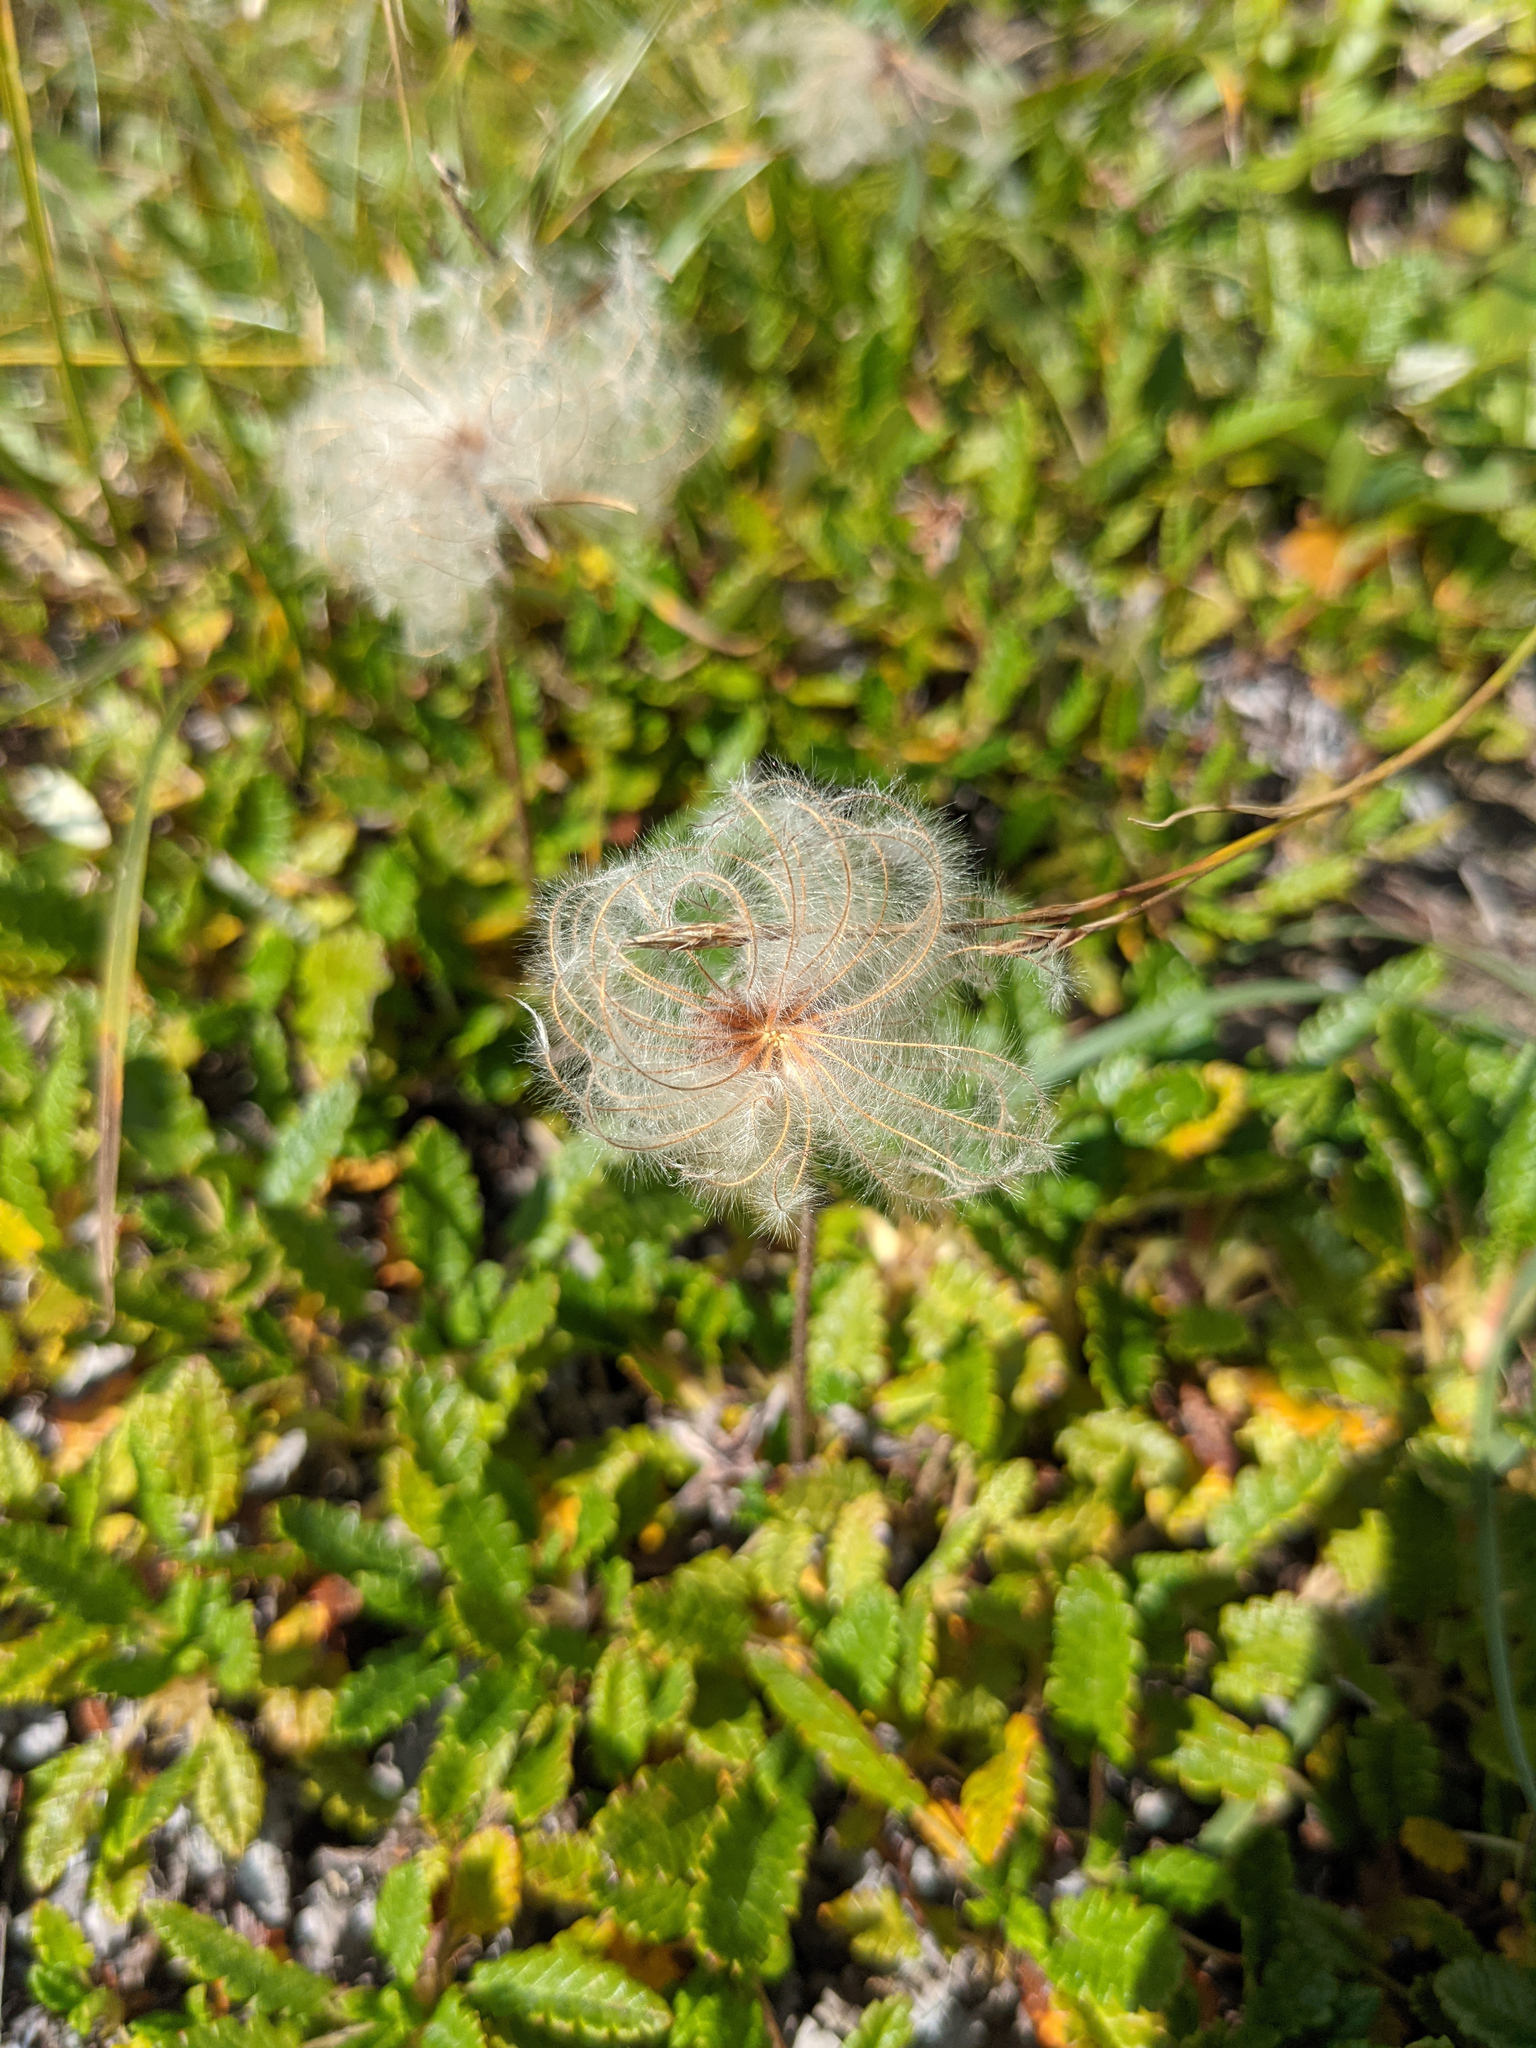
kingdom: Plantae
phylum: Tracheophyta
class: Magnoliopsida
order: Rosales
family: Rosaceae
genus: Dryas
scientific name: Dryas octopetala
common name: Eight-petal mountain-avens
